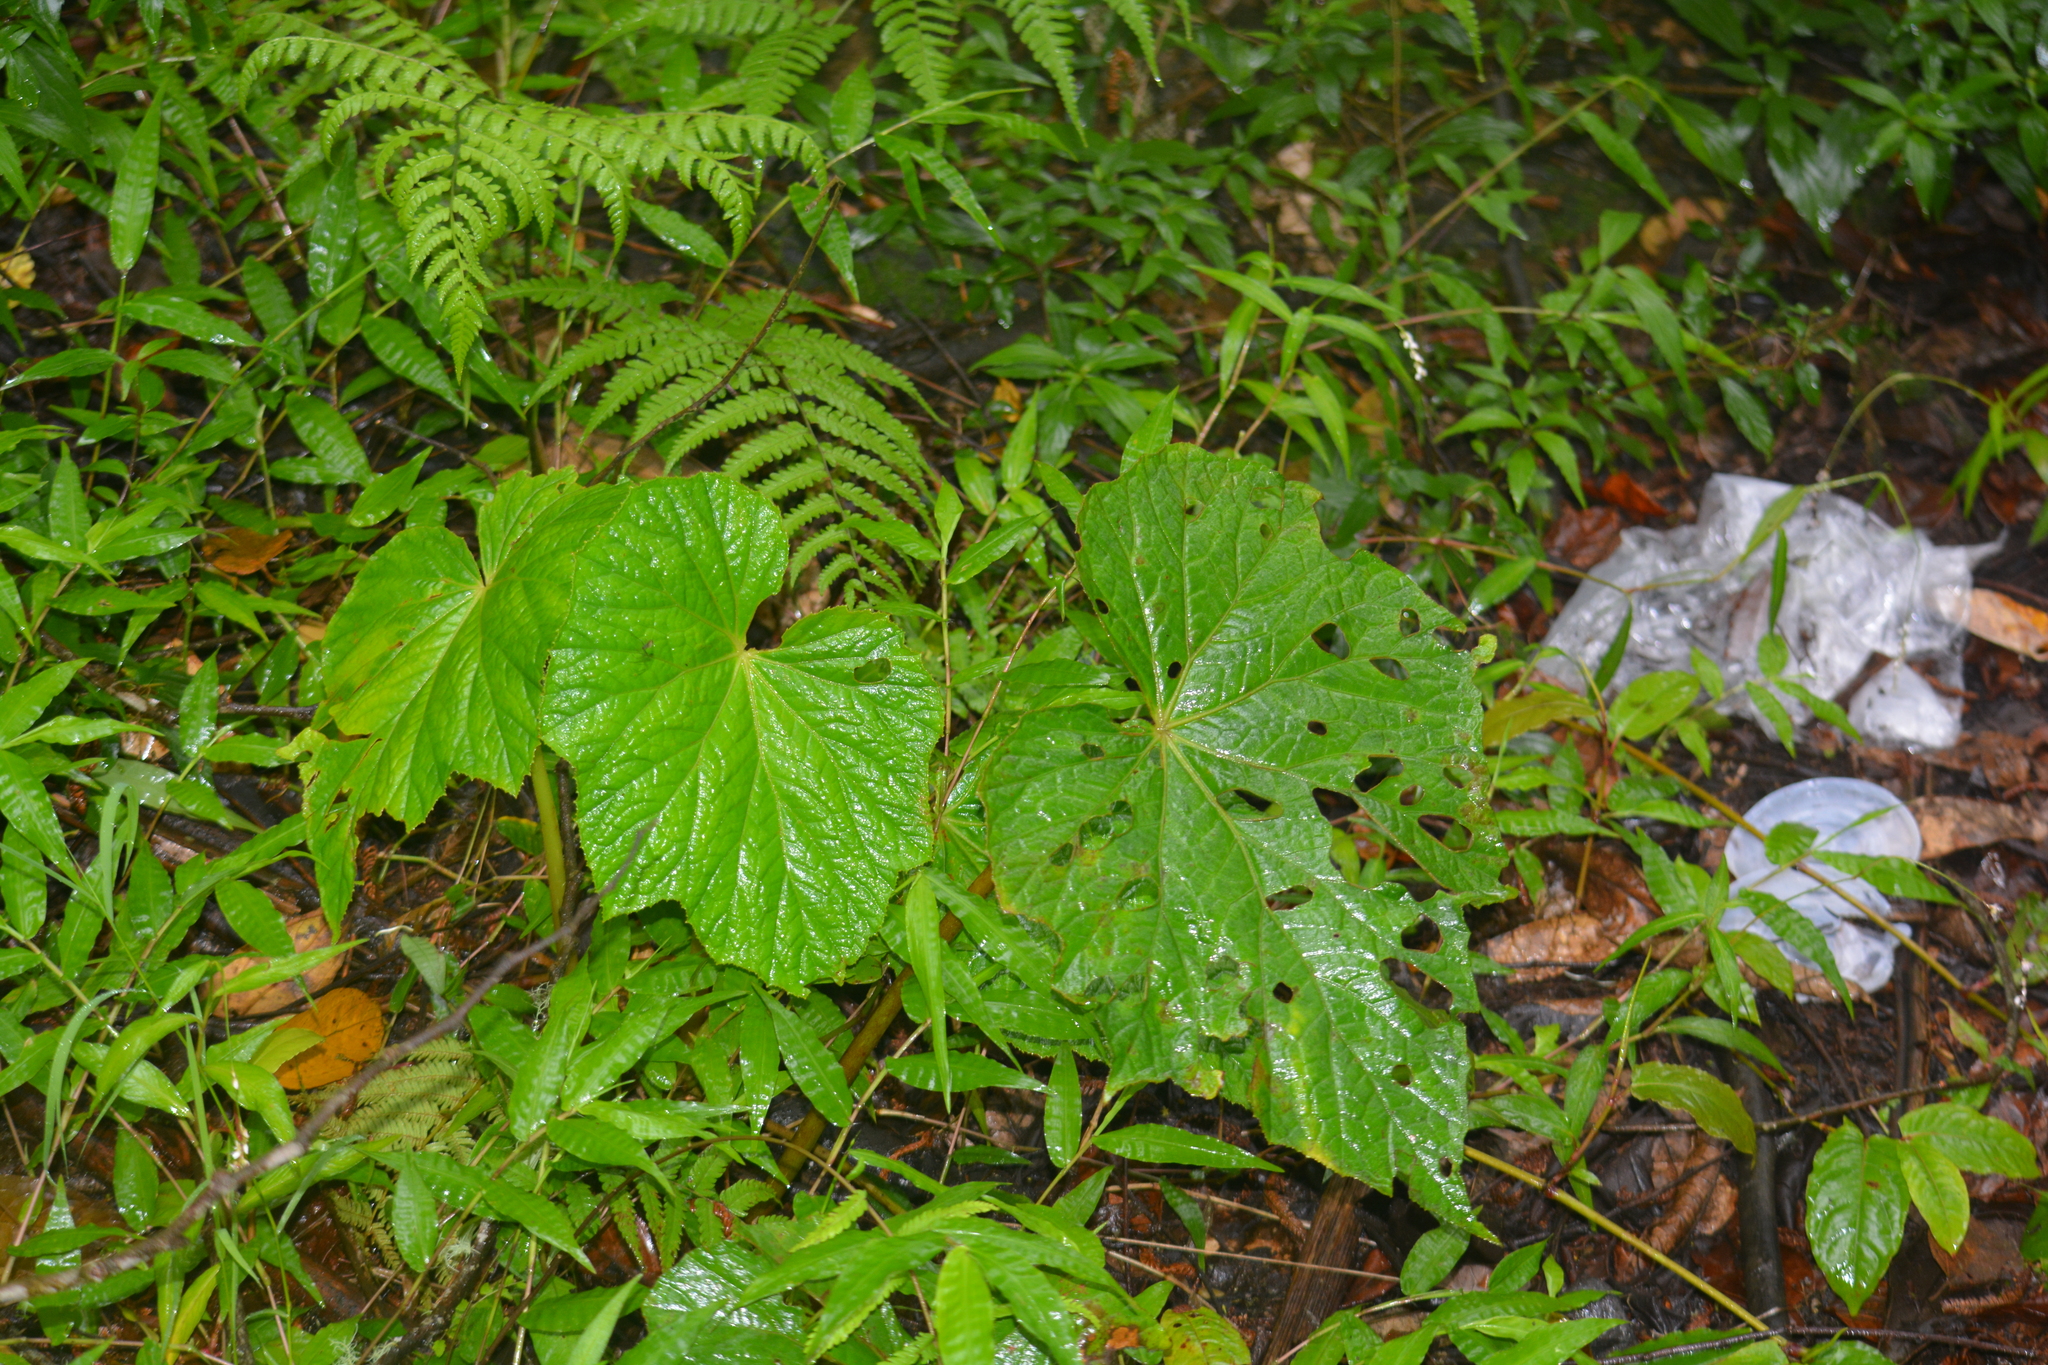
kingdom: Plantae
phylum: Tracheophyta
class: Magnoliopsida
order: Cucurbitales
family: Begoniaceae
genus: Begonia
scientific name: Begonia multangula
